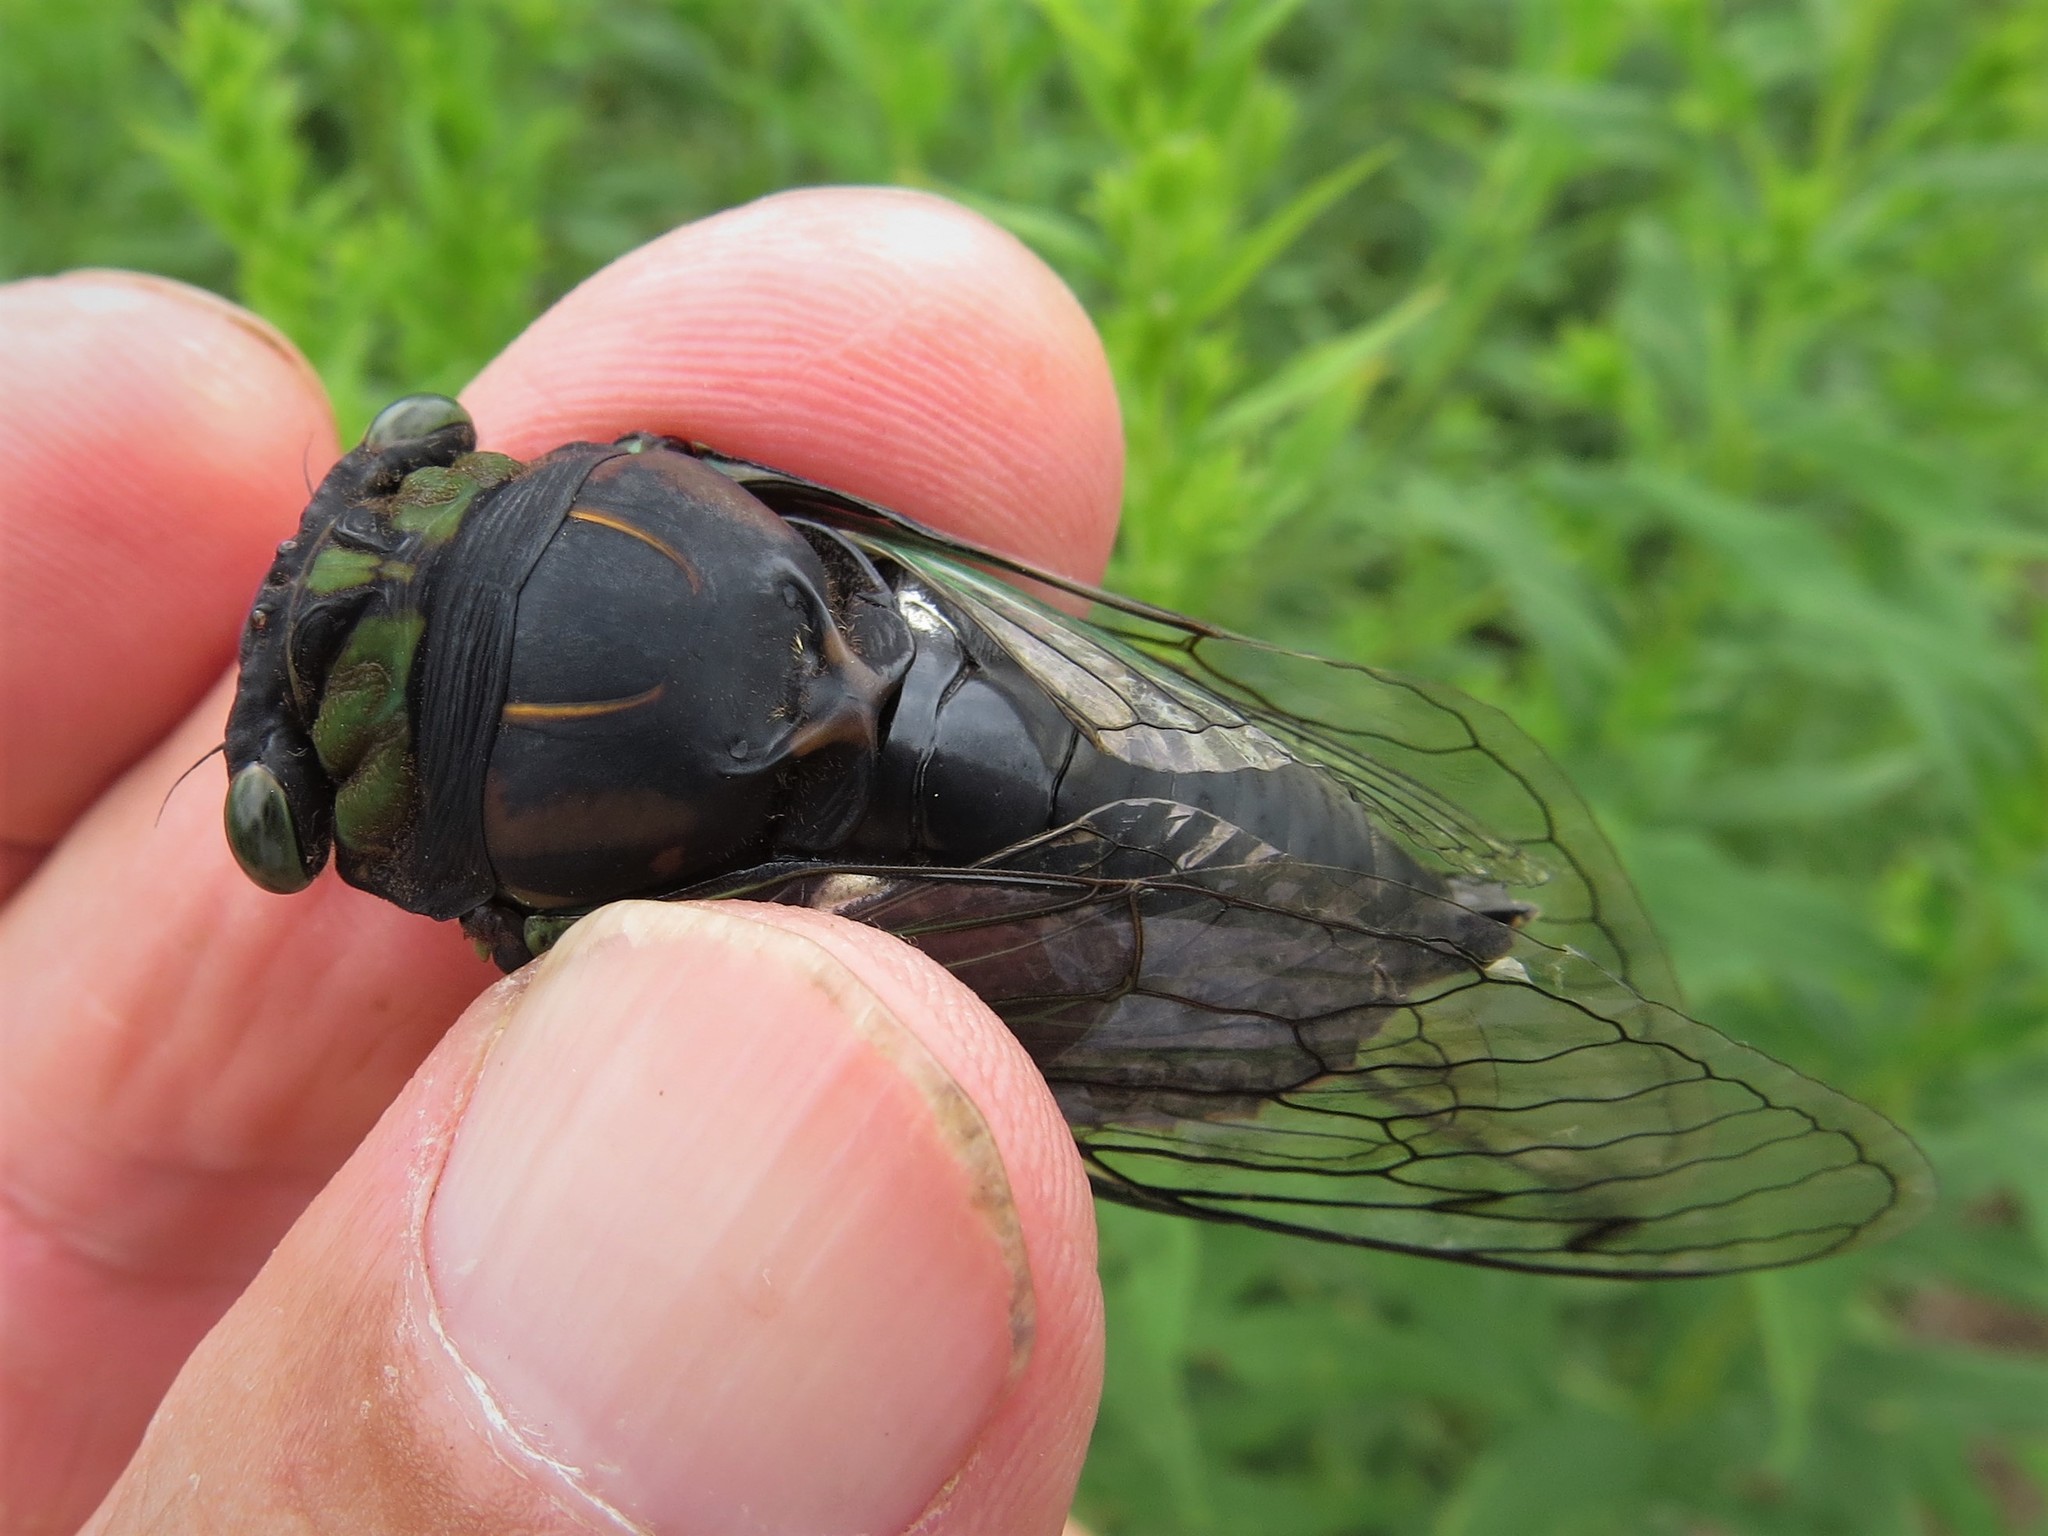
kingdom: Animalia
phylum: Arthropoda
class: Insecta
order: Hemiptera
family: Cicadidae
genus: Neotibicen
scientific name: Neotibicen tibicen
